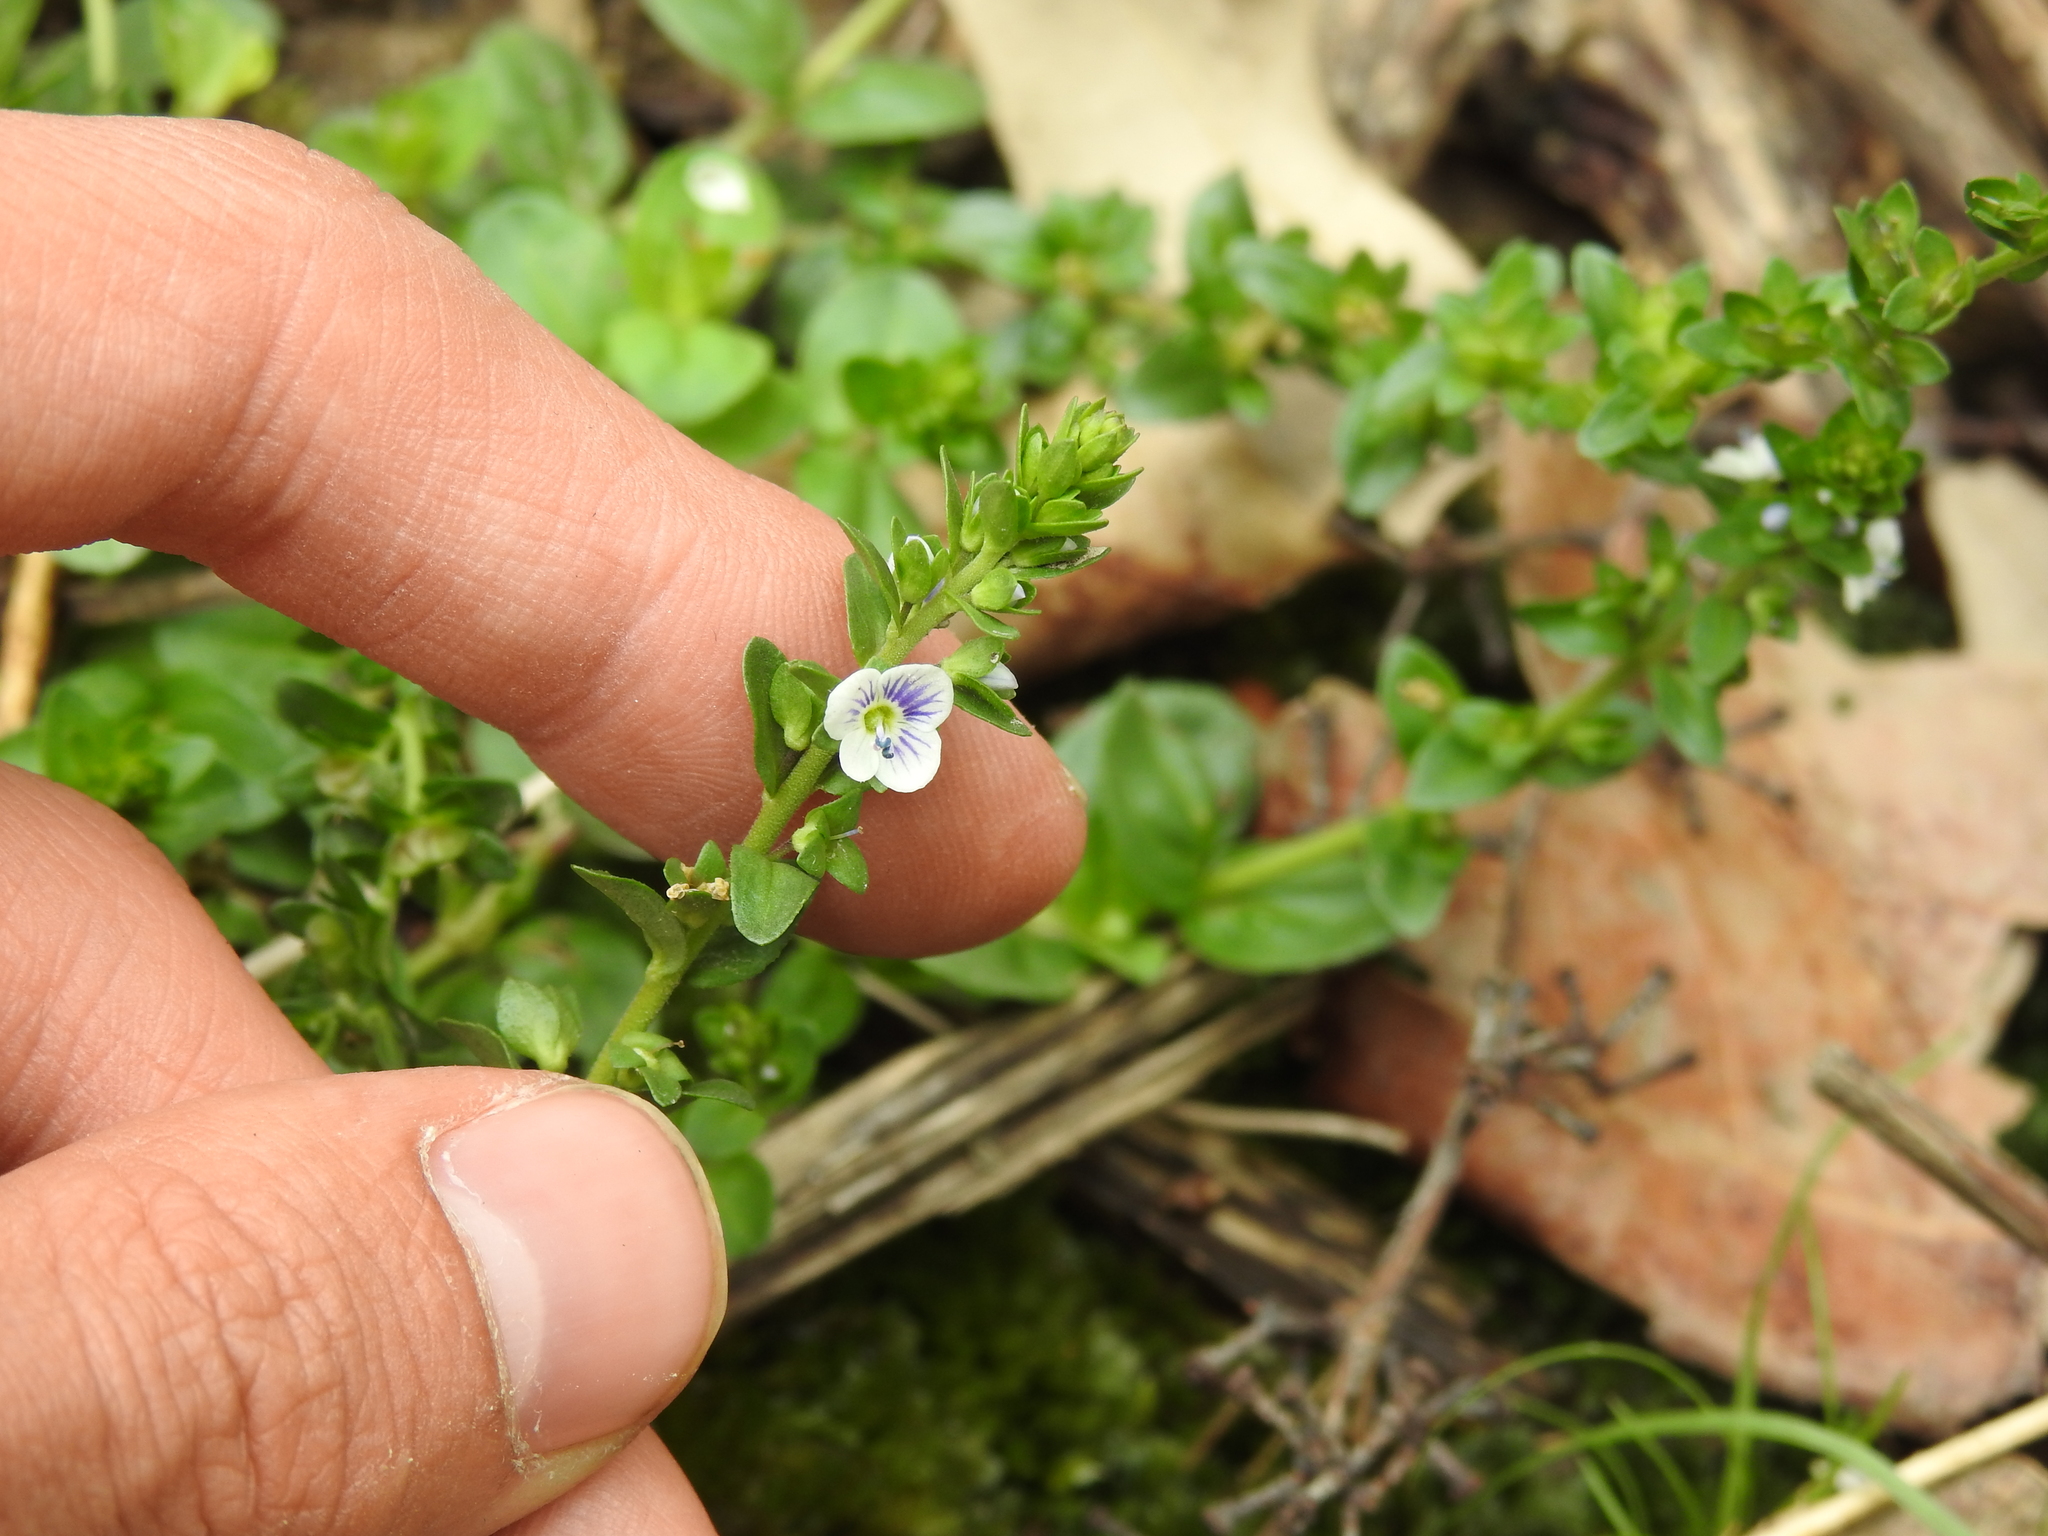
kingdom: Plantae
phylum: Tracheophyta
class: Magnoliopsida
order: Lamiales
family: Plantaginaceae
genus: Veronica
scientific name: Veronica serpyllifolia
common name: Thyme-leaved speedwell
